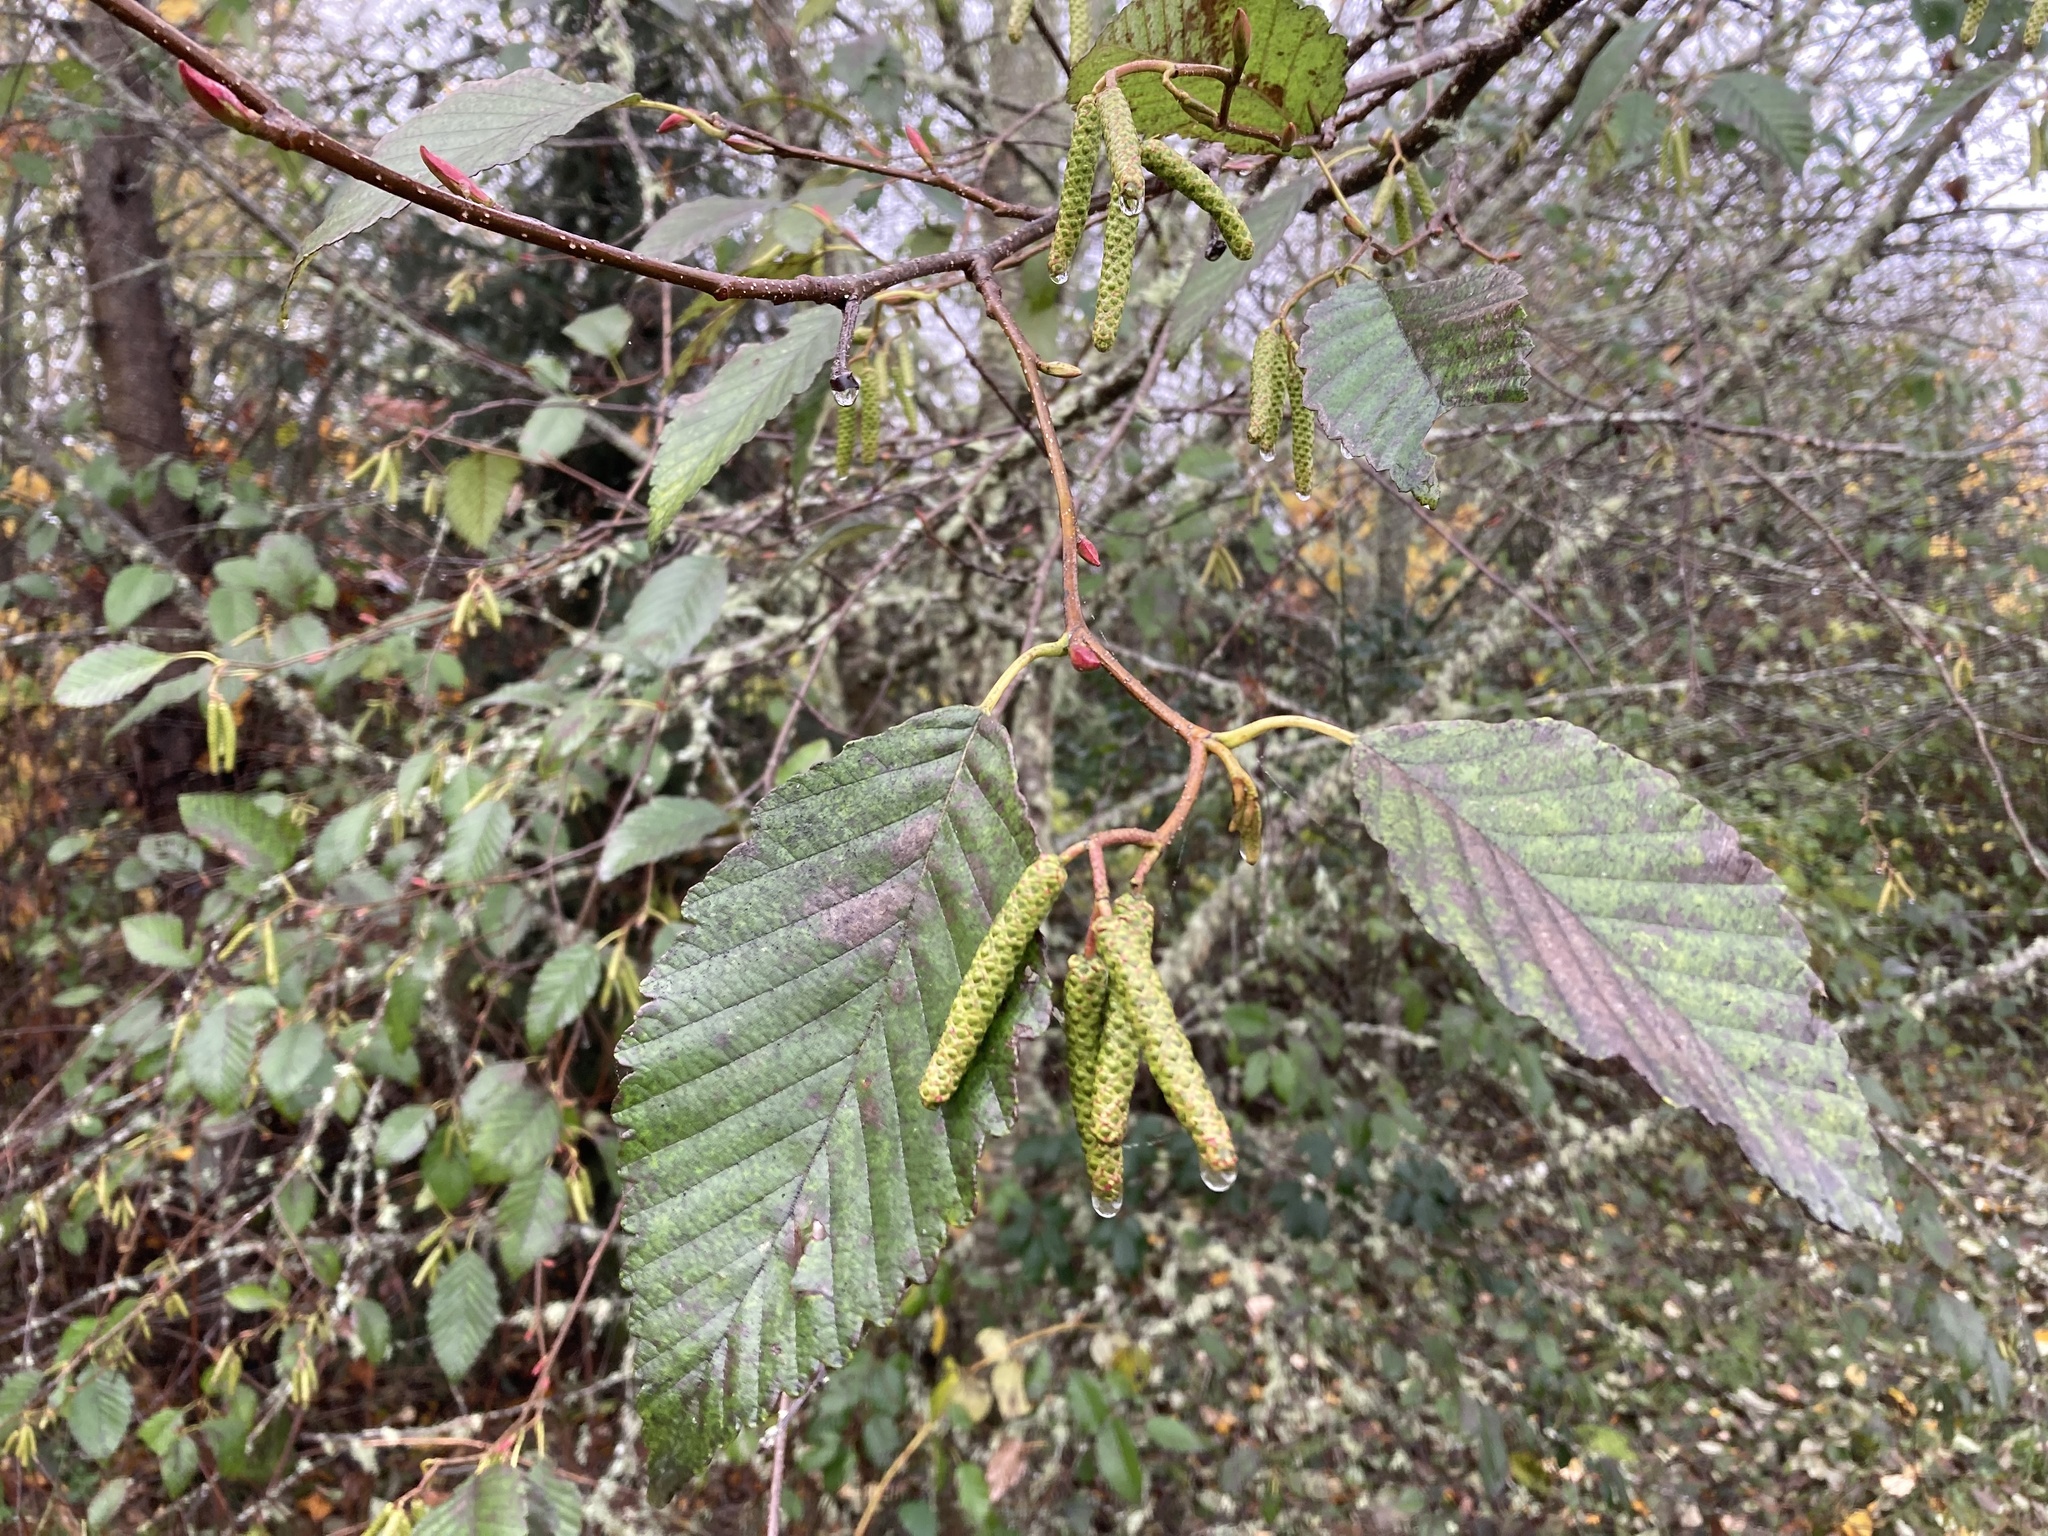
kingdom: Plantae
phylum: Tracheophyta
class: Magnoliopsida
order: Fagales
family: Betulaceae
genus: Alnus
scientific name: Alnus rubra
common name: Red alder
